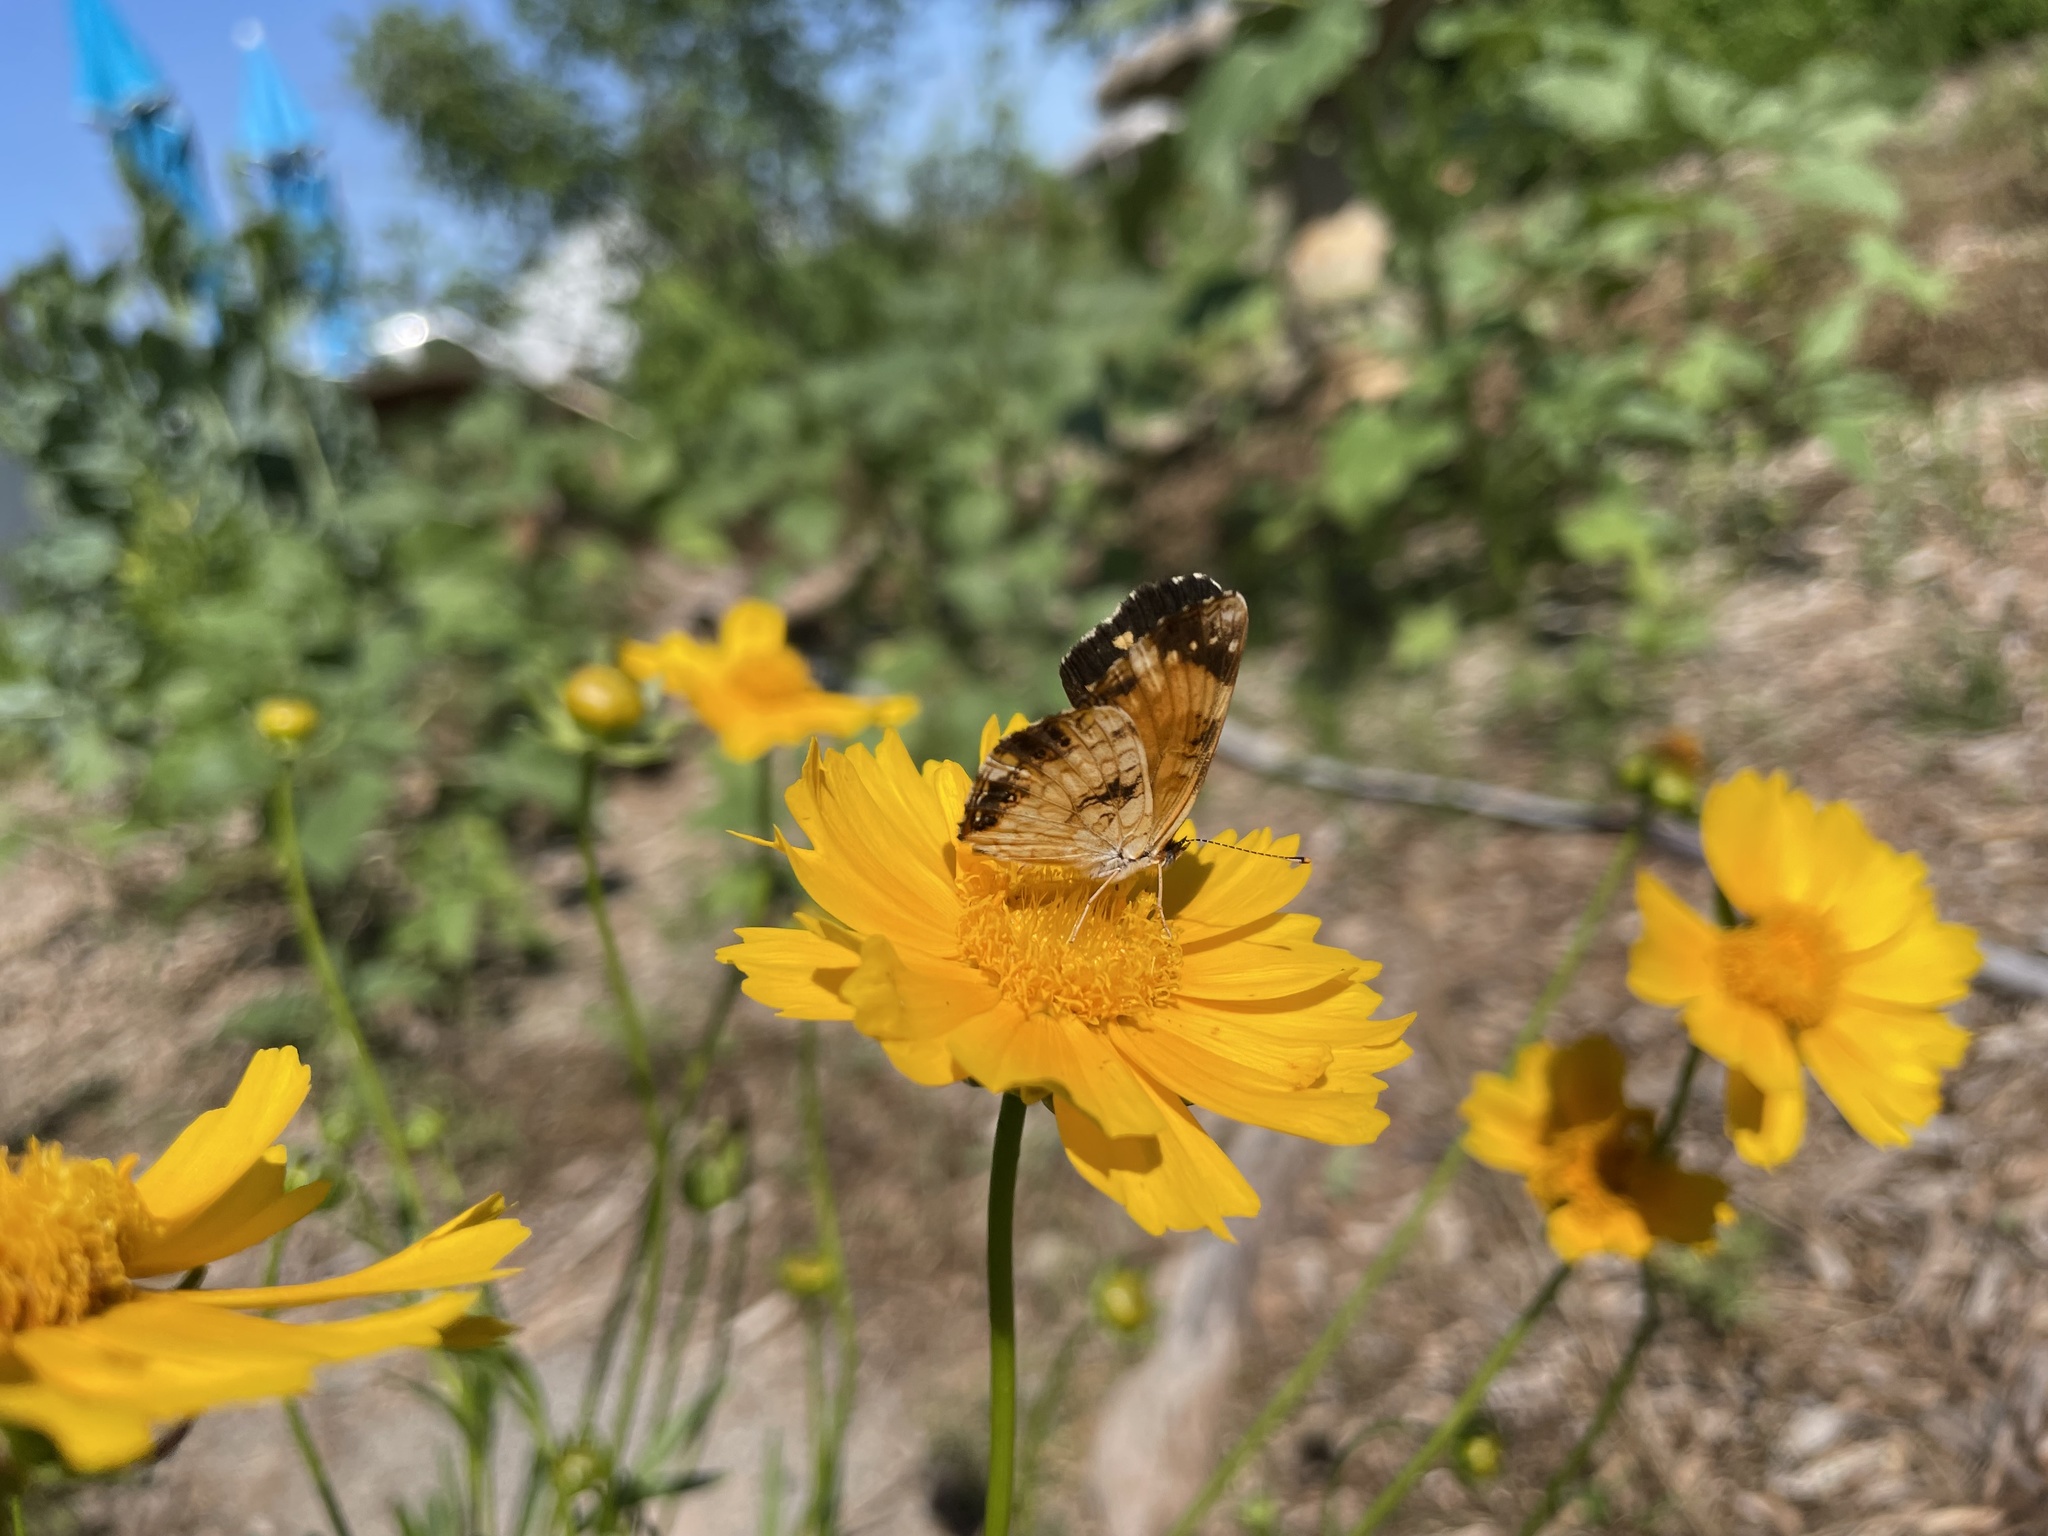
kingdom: Animalia
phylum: Arthropoda
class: Insecta
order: Lepidoptera
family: Nymphalidae
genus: Chlosyne
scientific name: Chlosyne nycteis
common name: Silvery checkerspot
